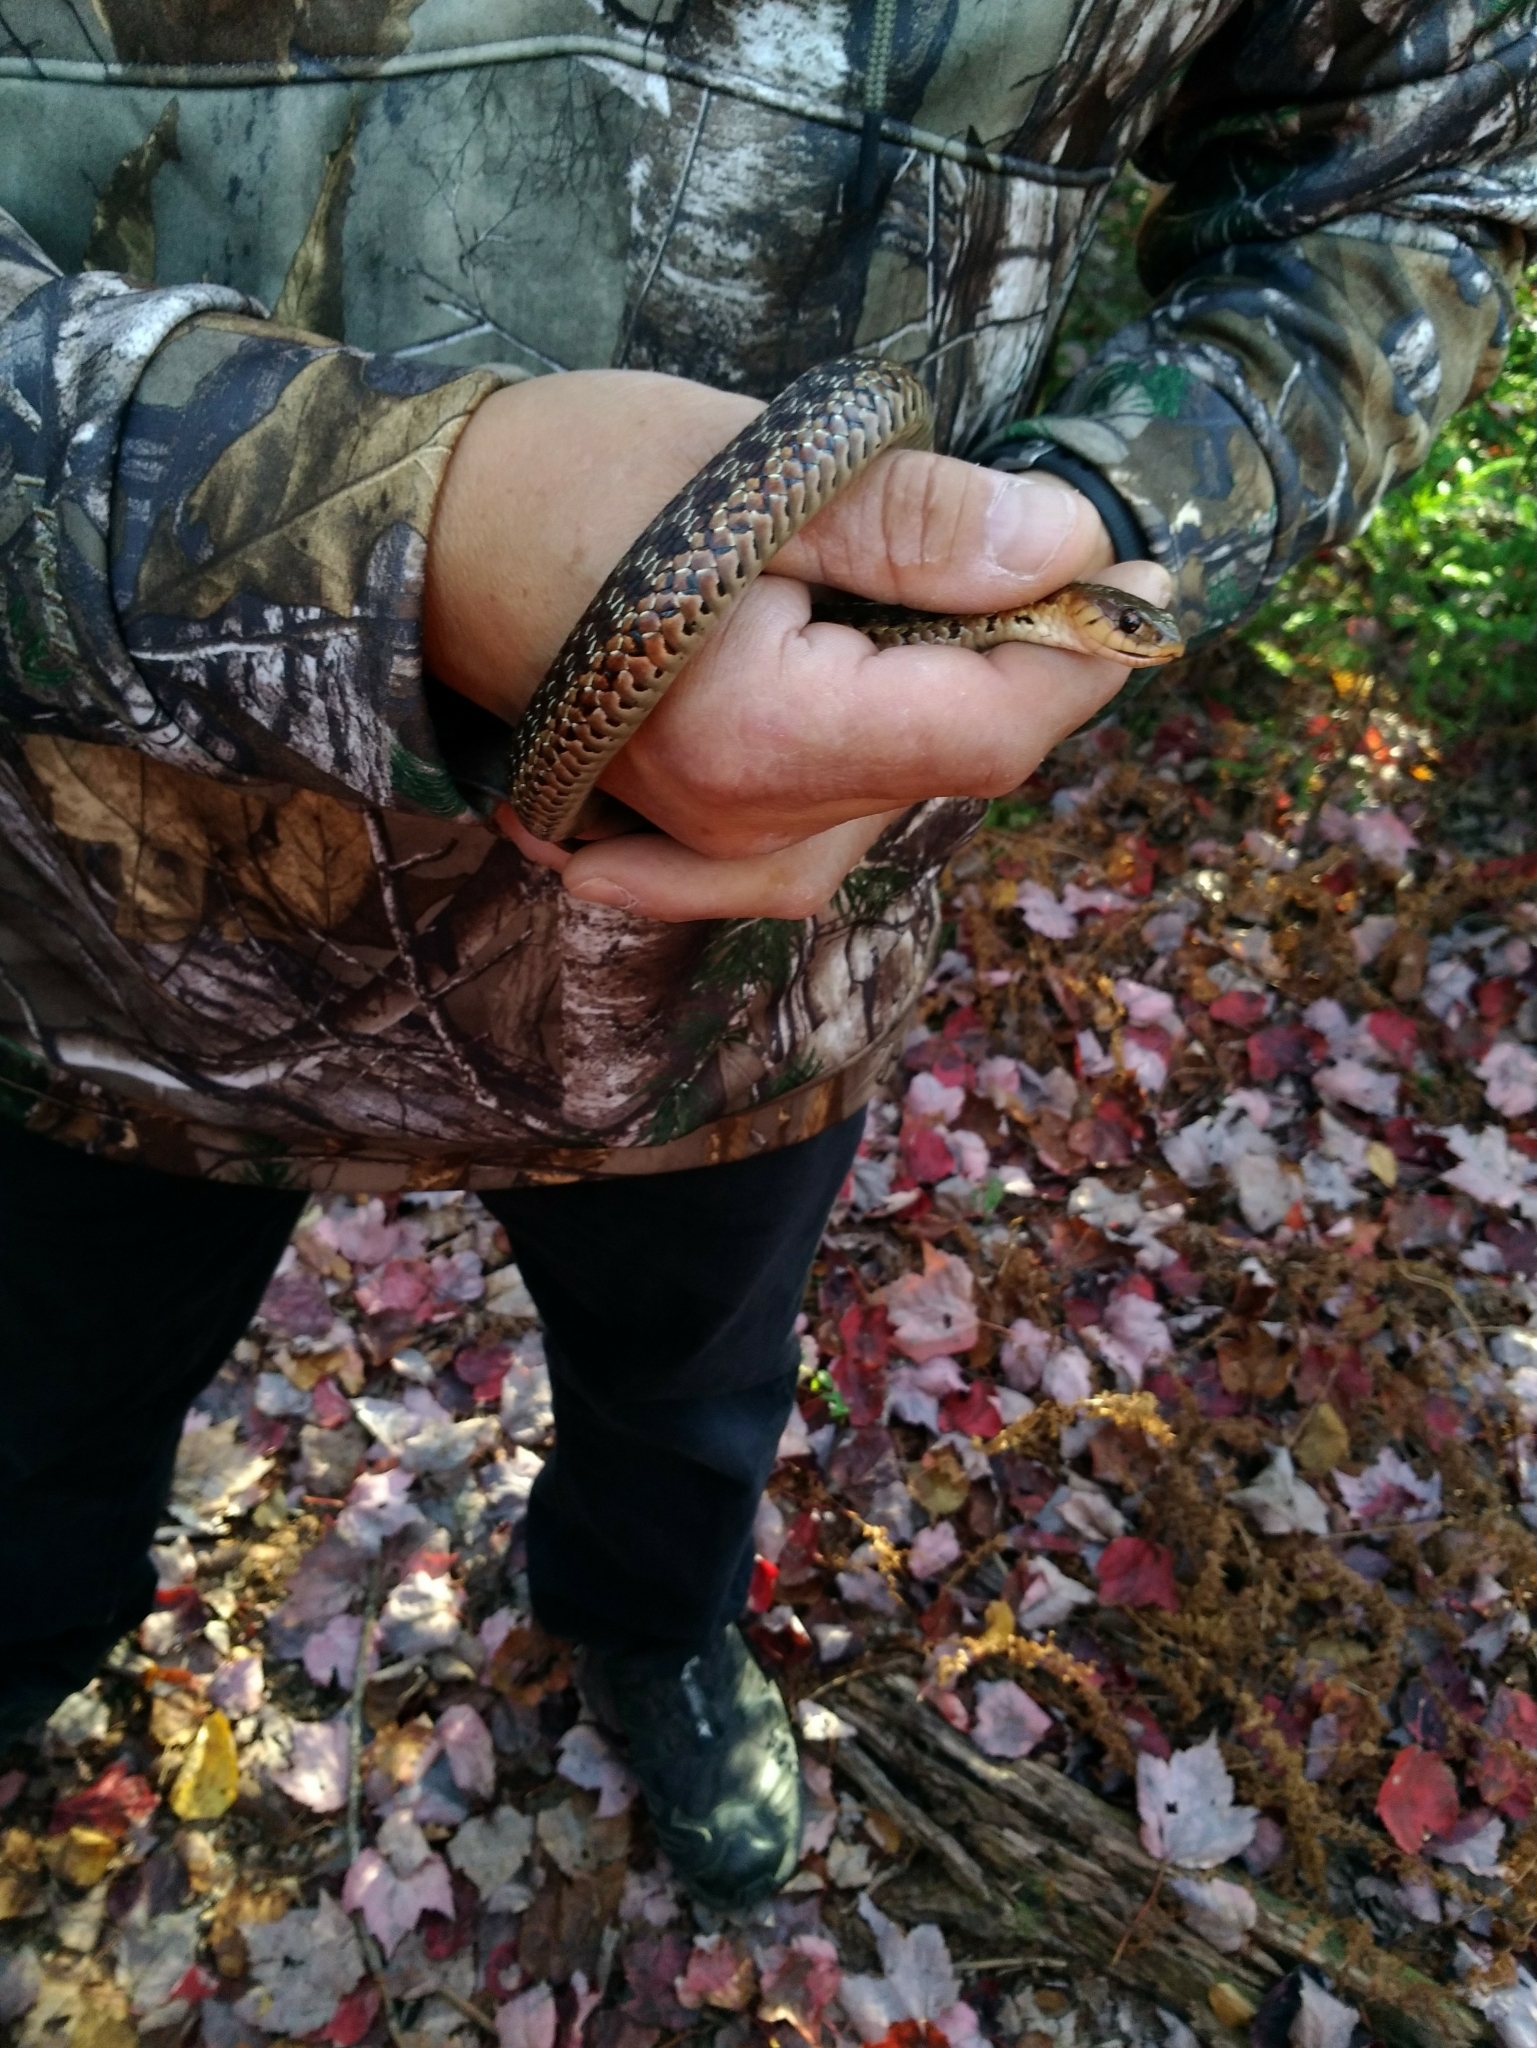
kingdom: Animalia
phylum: Chordata
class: Squamata
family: Colubridae
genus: Thamnophis
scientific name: Thamnophis sirtalis
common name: Common garter snake
